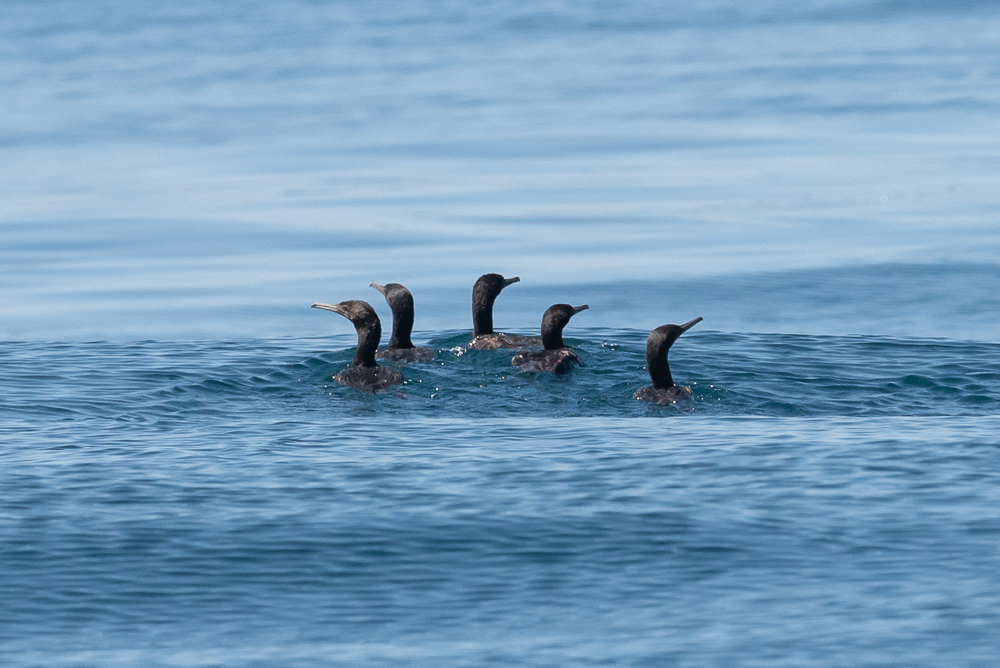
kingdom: Animalia
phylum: Chordata
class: Aves
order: Suliformes
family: Phalacrocoracidae
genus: Urile
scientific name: Urile penicillatus
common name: Brandt's cormorant
